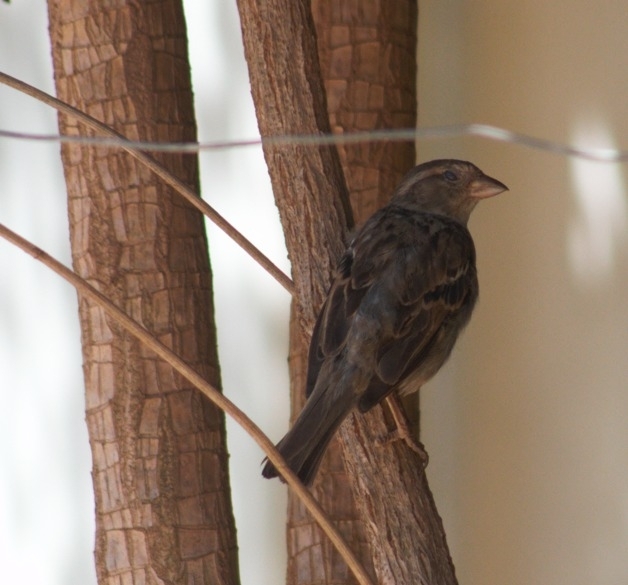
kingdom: Animalia
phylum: Chordata
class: Aves
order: Passeriformes
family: Passeridae
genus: Passer
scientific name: Passer domesticus
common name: House sparrow
